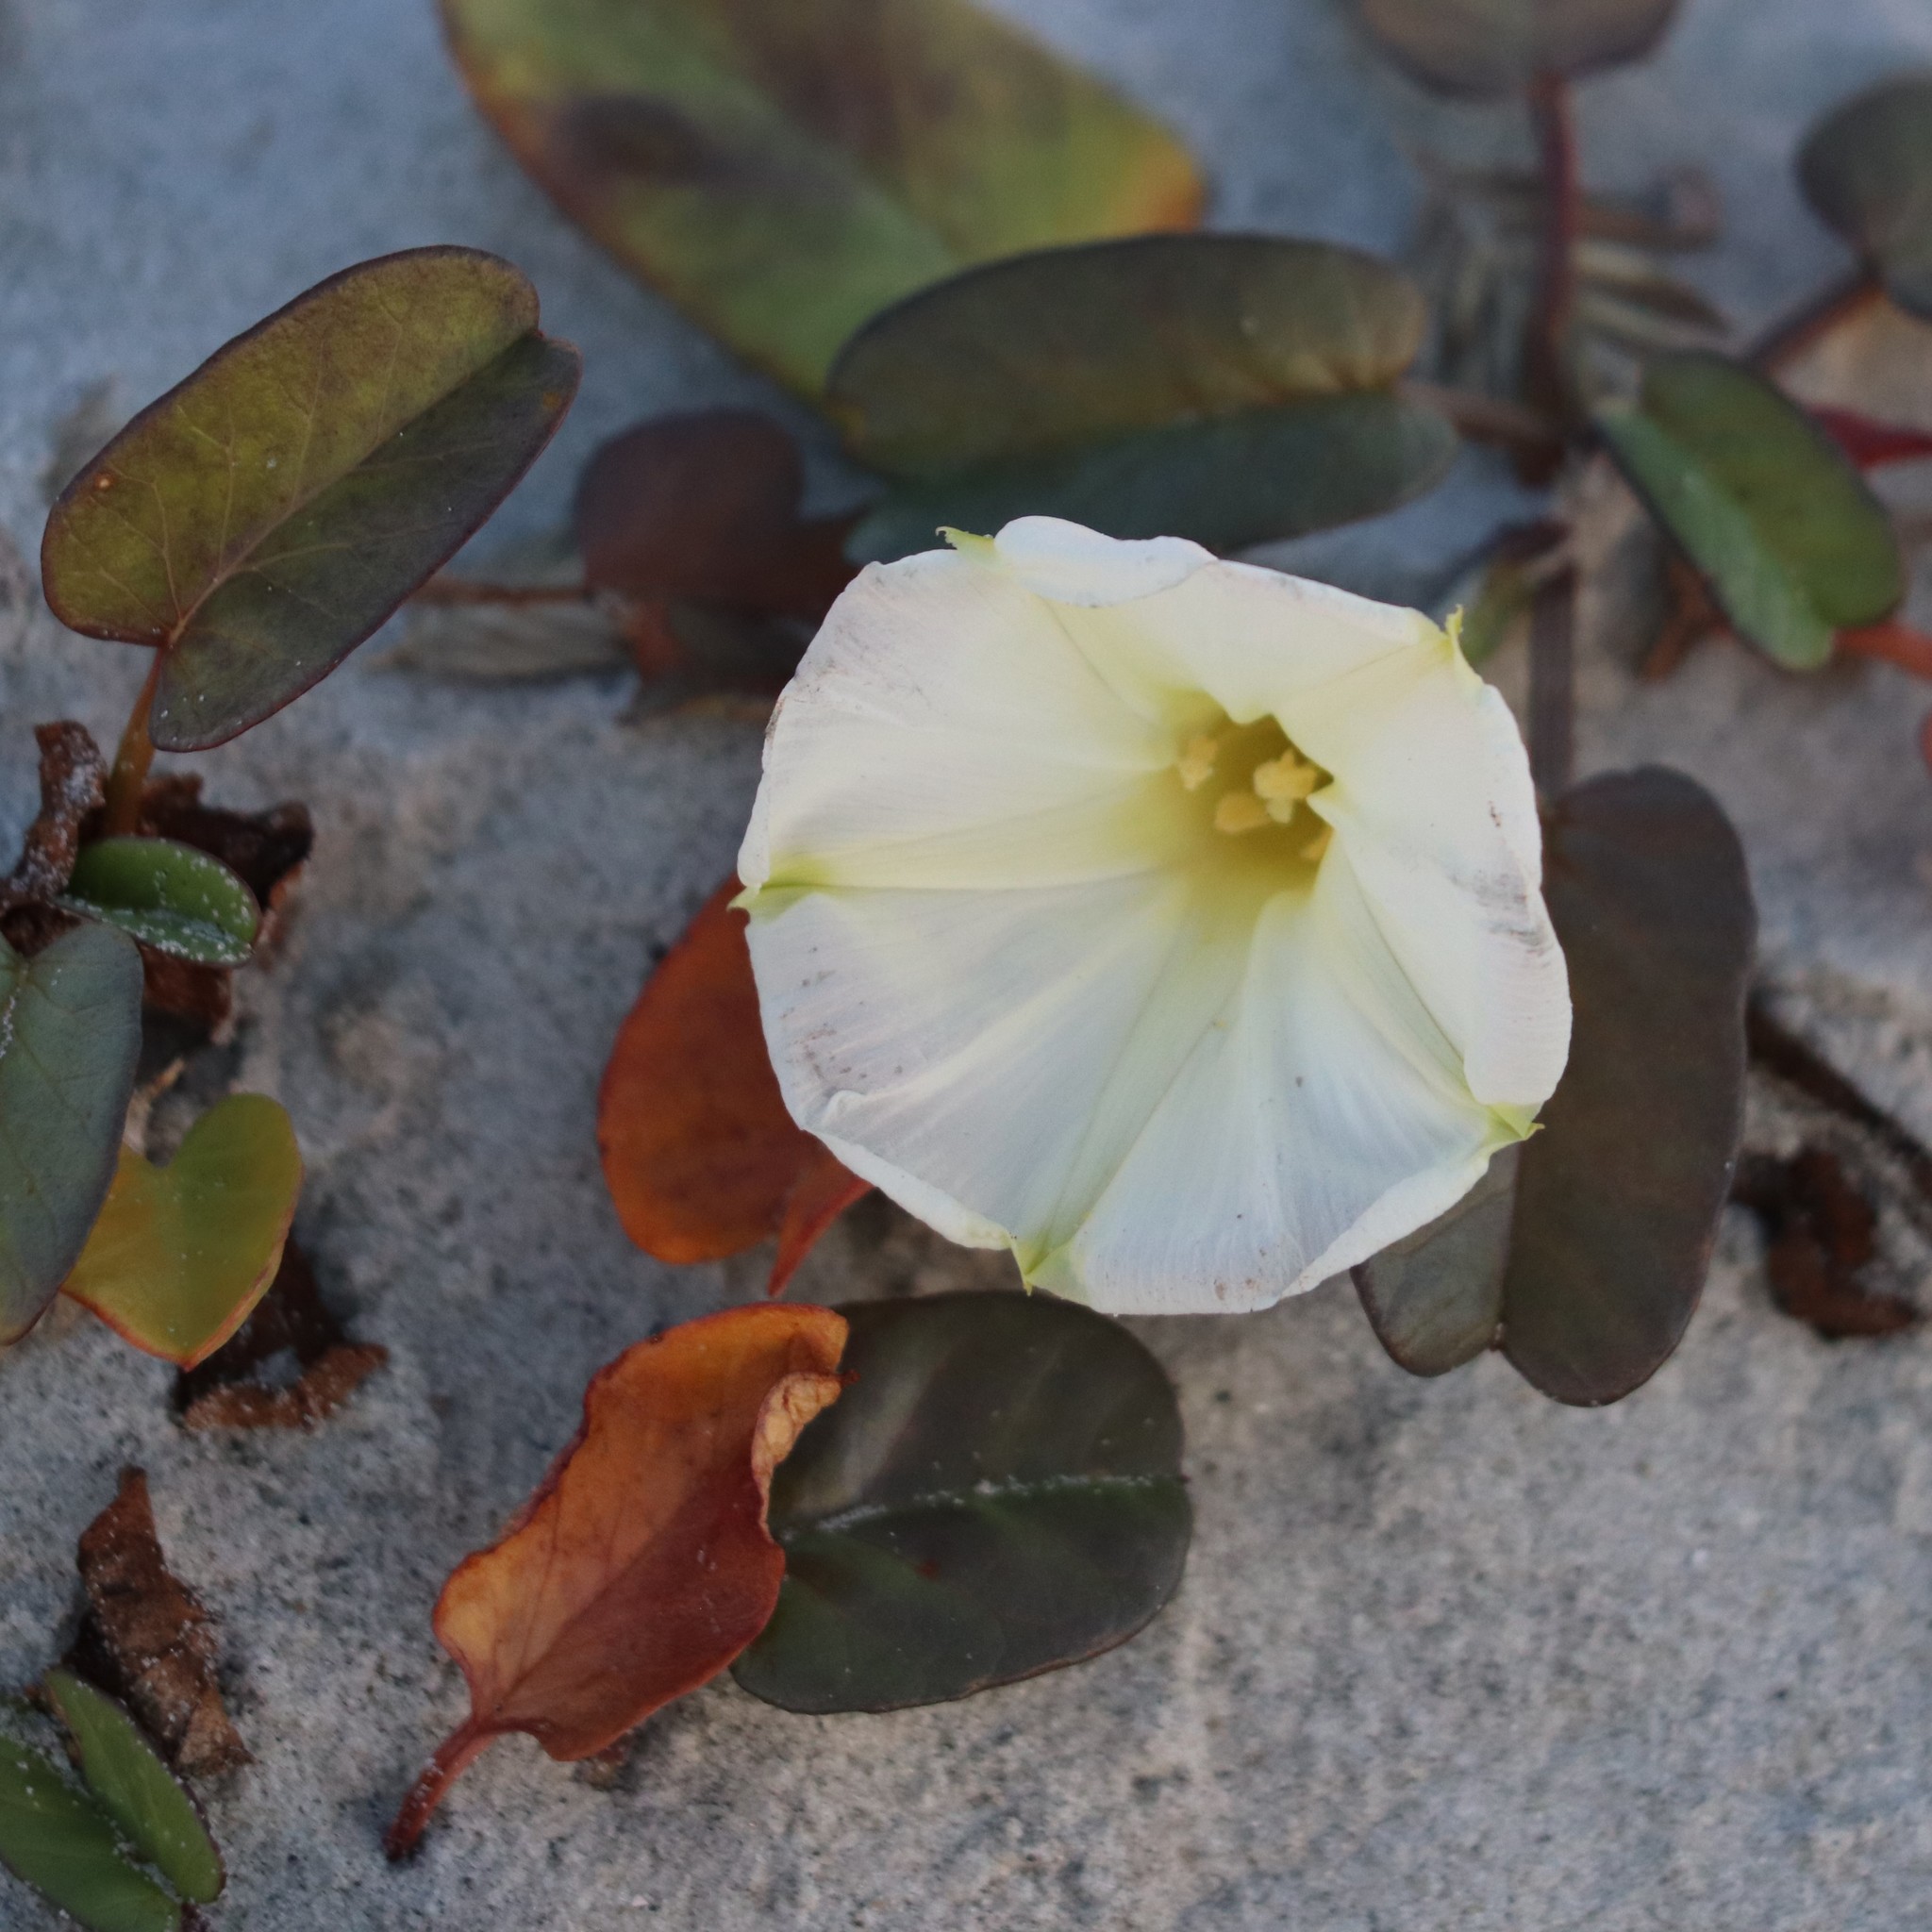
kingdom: Plantae
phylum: Tracheophyta
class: Magnoliopsida
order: Solanales
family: Convolvulaceae
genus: Ipomoea
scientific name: Ipomoea imperati
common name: Fiddle-leaf morning-glory
